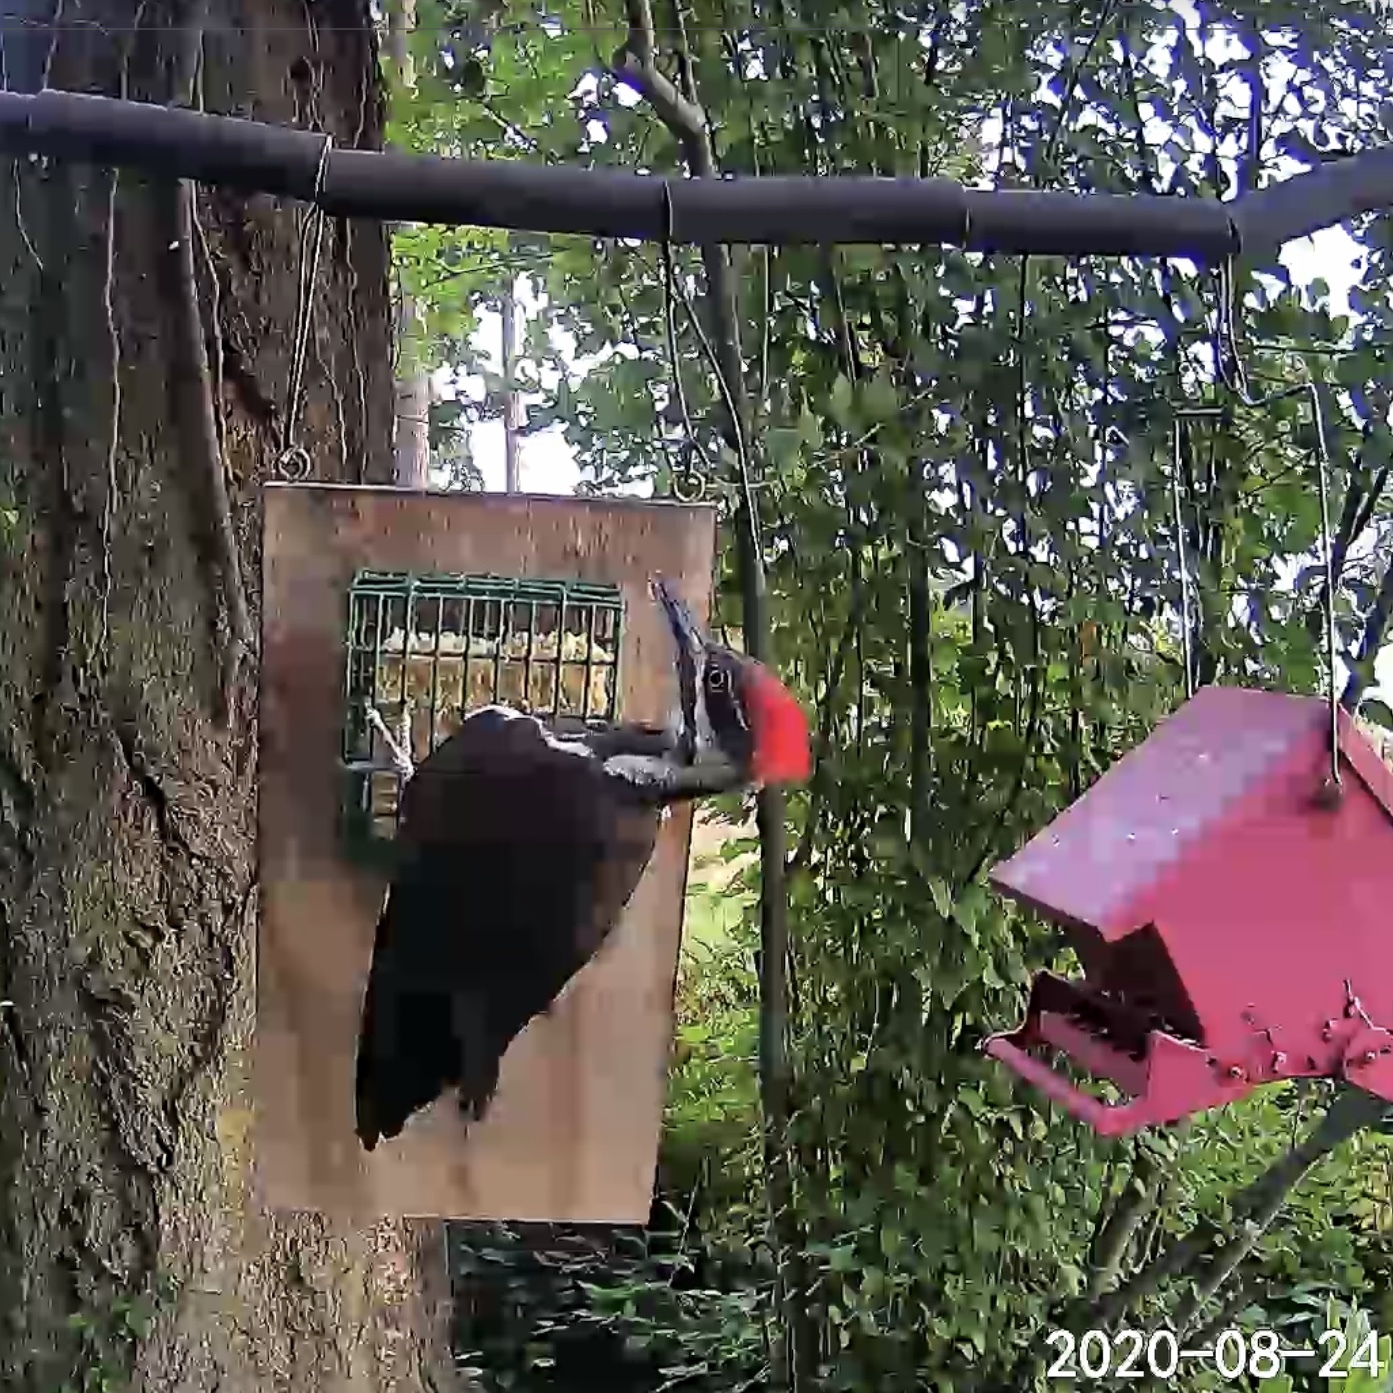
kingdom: Animalia
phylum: Chordata
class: Aves
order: Piciformes
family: Picidae
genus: Dryocopus
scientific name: Dryocopus pileatus
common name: Pileated woodpecker
